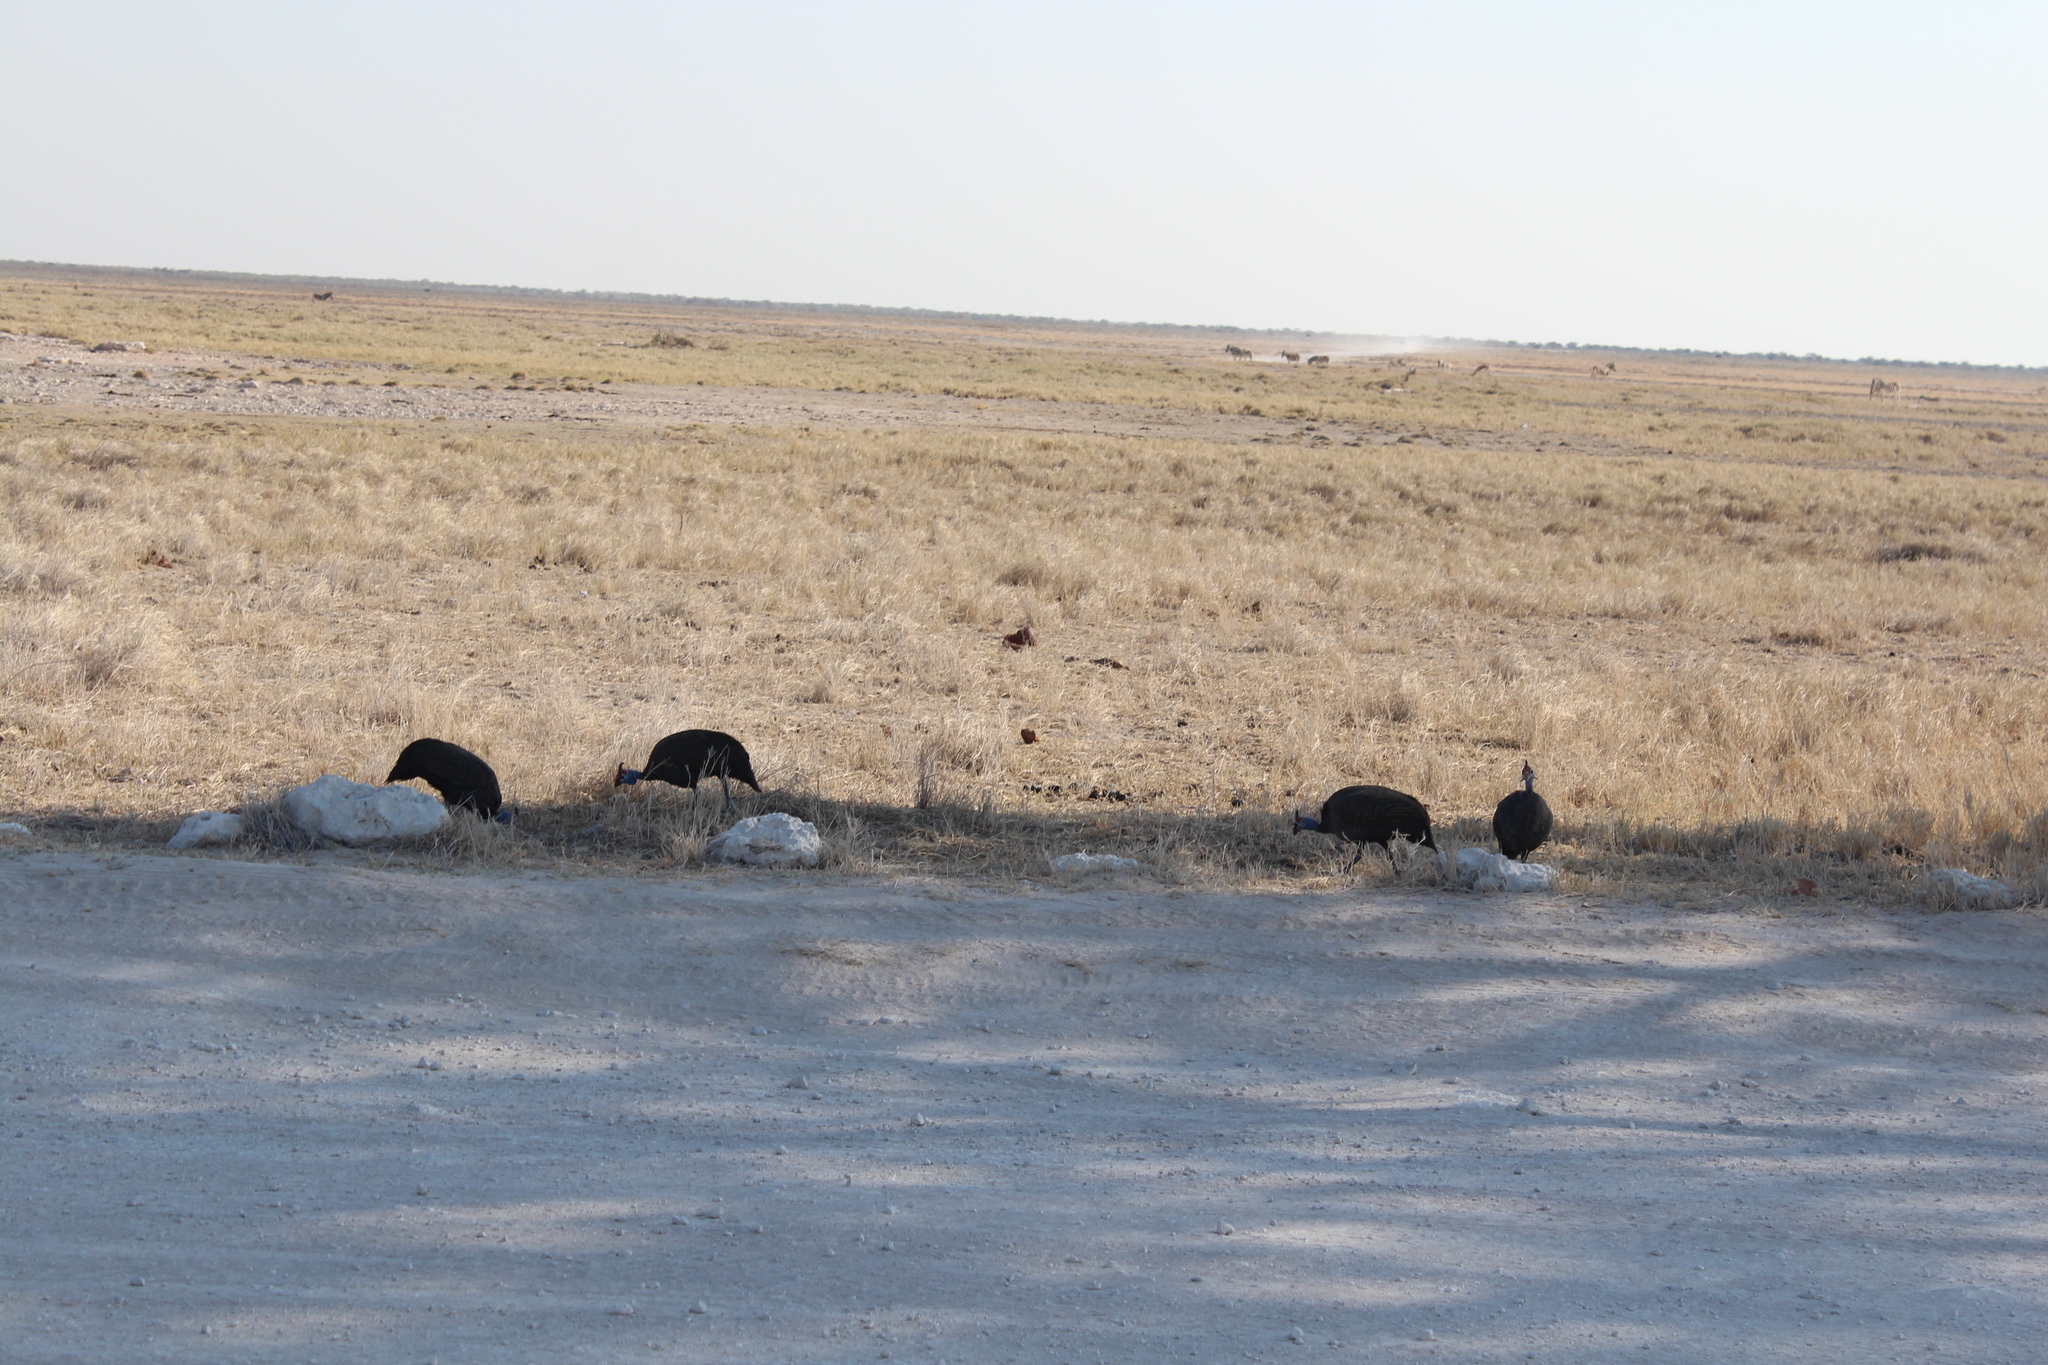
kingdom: Animalia
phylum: Chordata
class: Aves
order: Galliformes
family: Numididae
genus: Numida
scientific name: Numida meleagris
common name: Helmeted guineafowl
